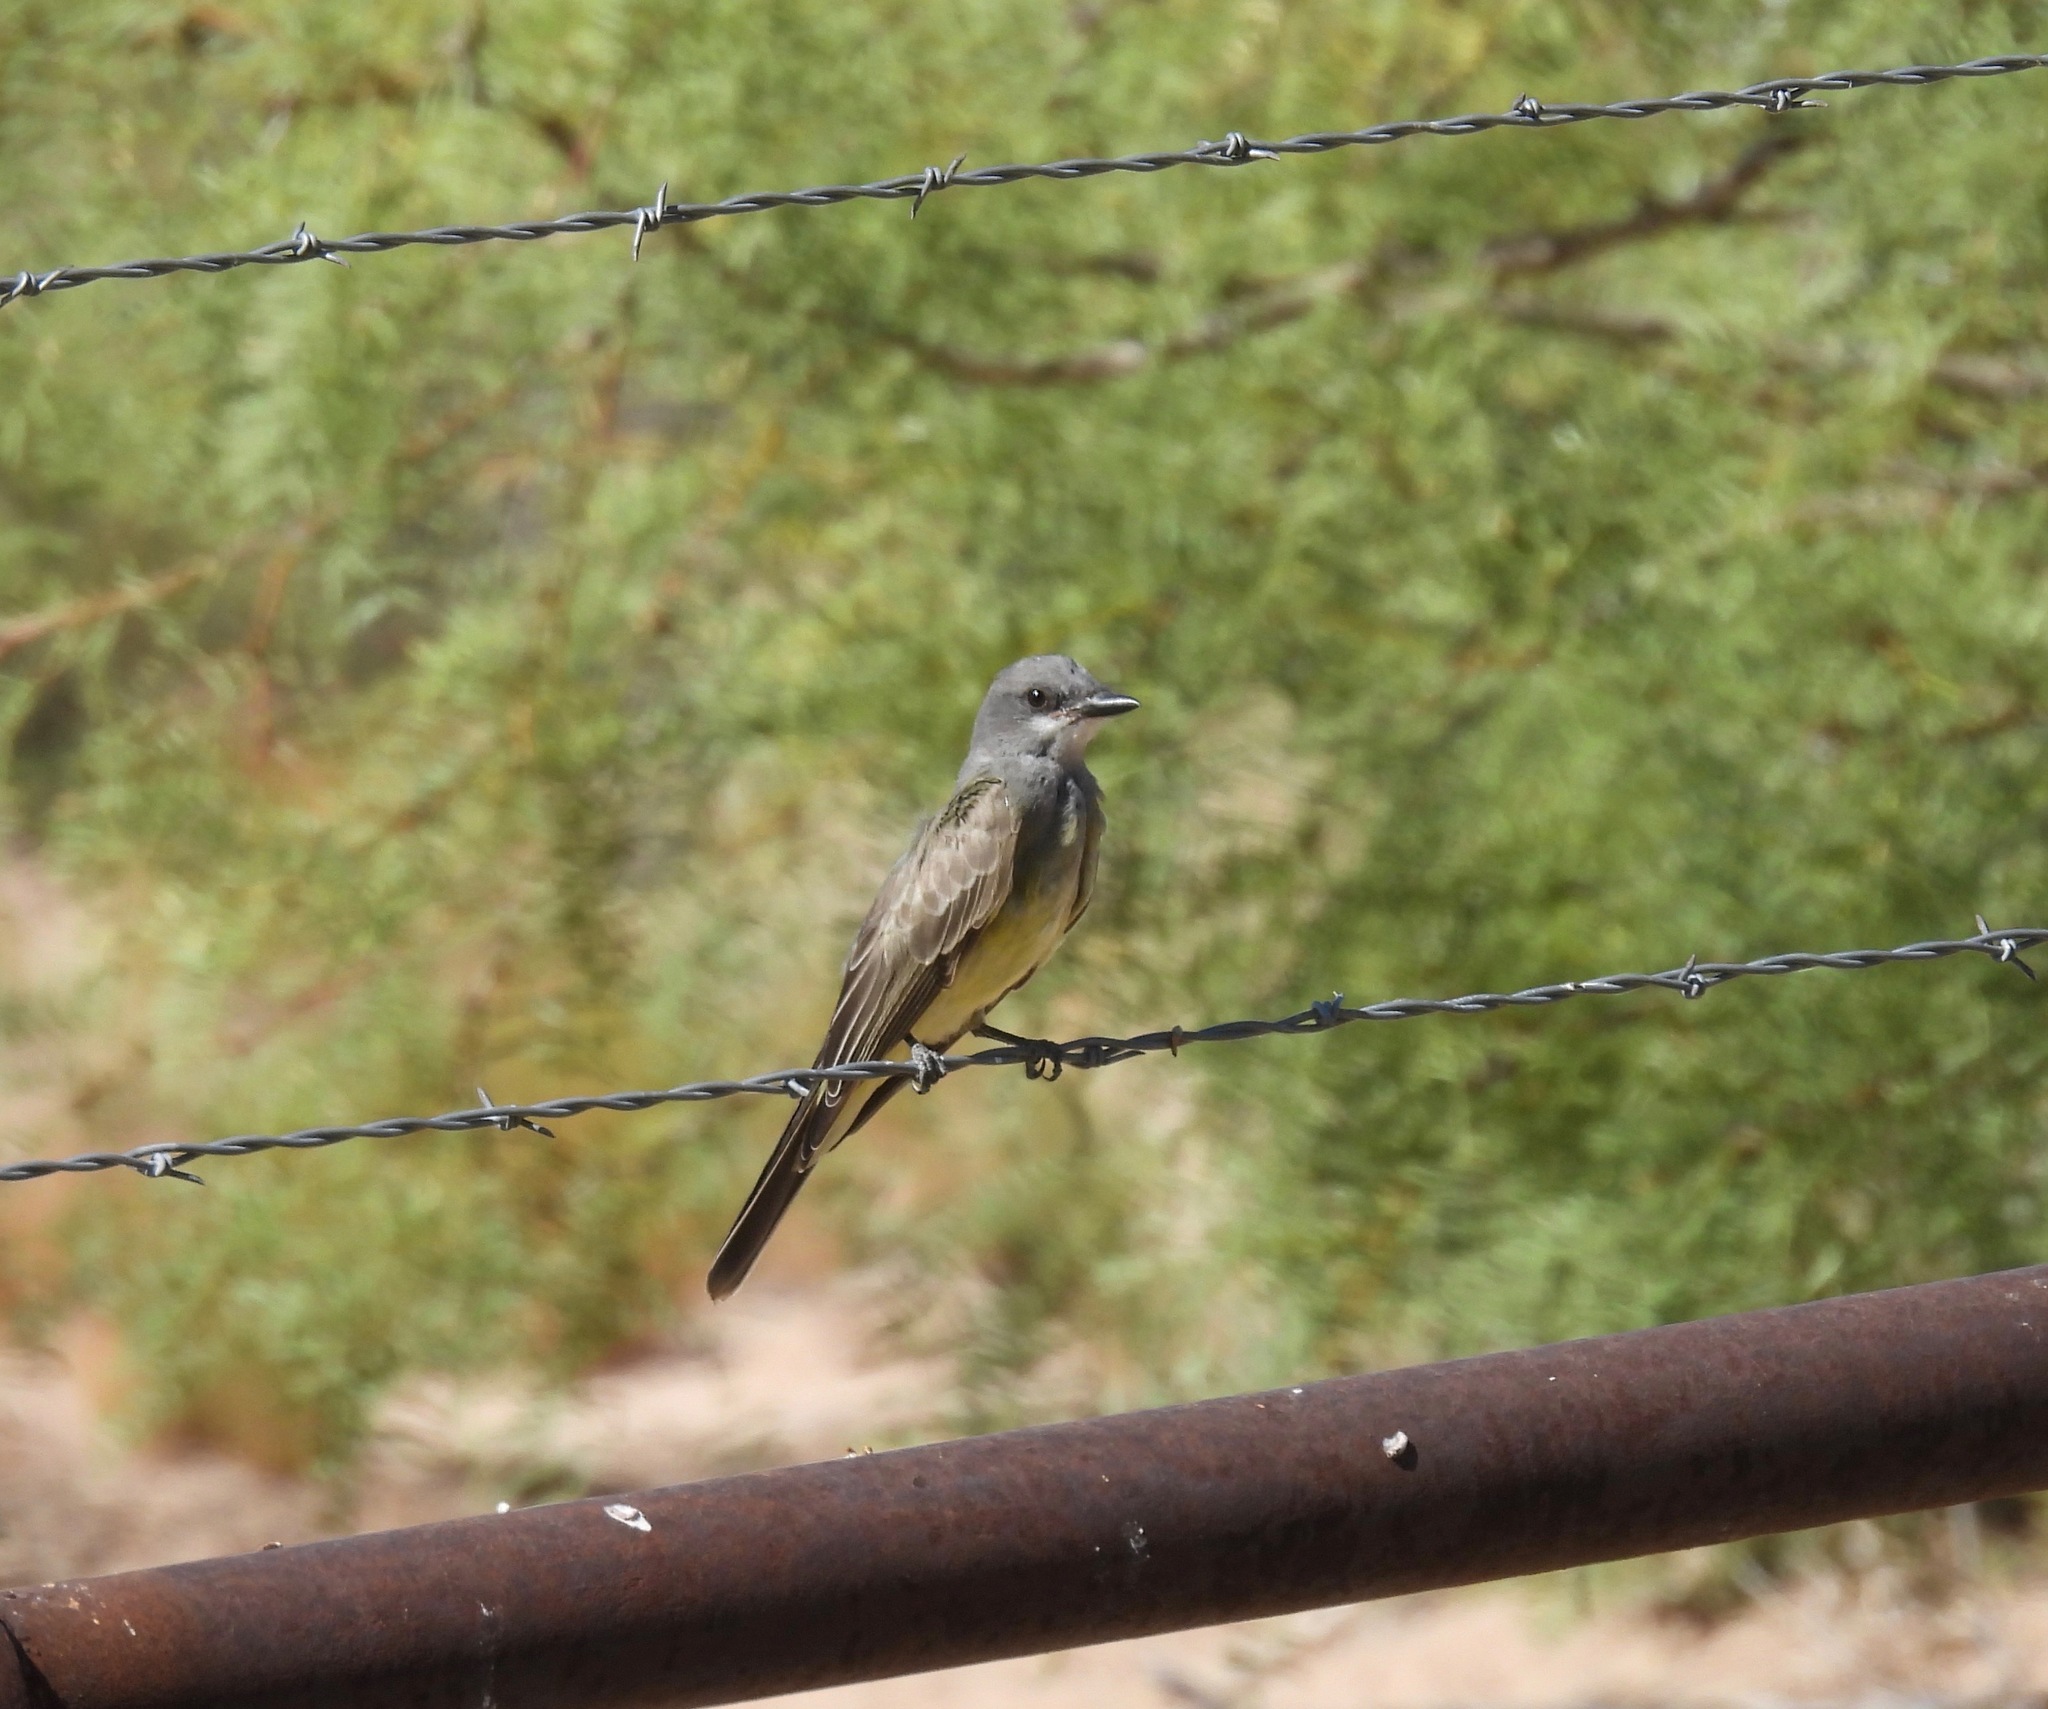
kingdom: Animalia
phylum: Chordata
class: Aves
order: Passeriformes
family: Tyrannidae
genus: Tyrannus
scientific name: Tyrannus vociferans
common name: Cassin's kingbird
